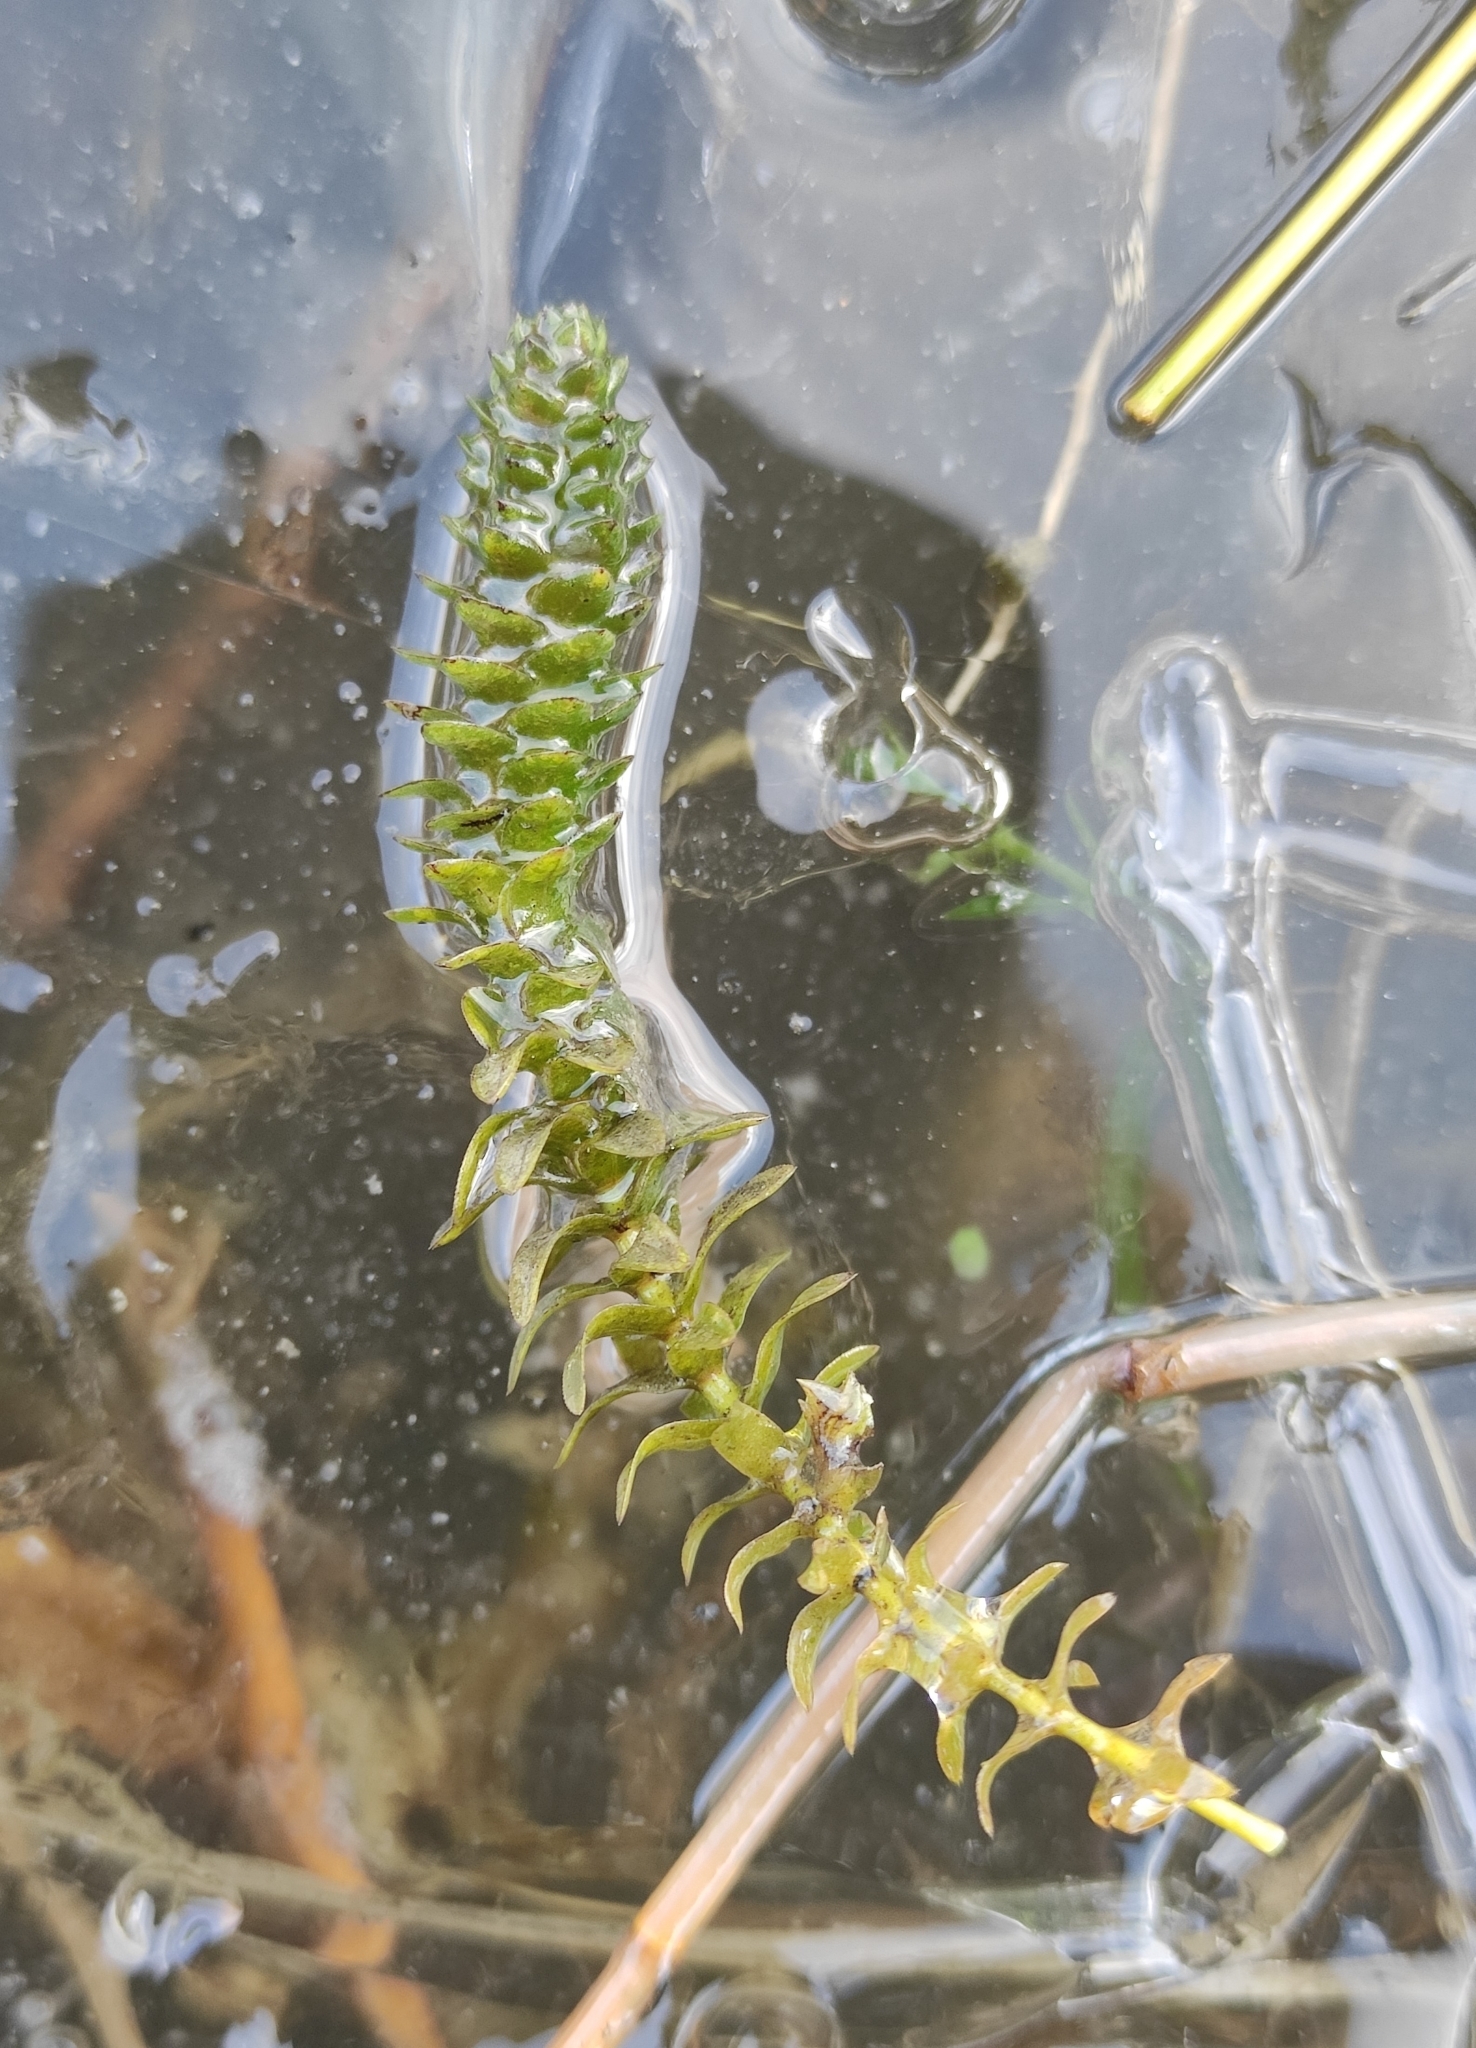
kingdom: Plantae
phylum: Tracheophyta
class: Liliopsida
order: Alismatales
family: Hydrocharitaceae
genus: Elodea
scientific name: Elodea canadensis
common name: Canadian waterweed
